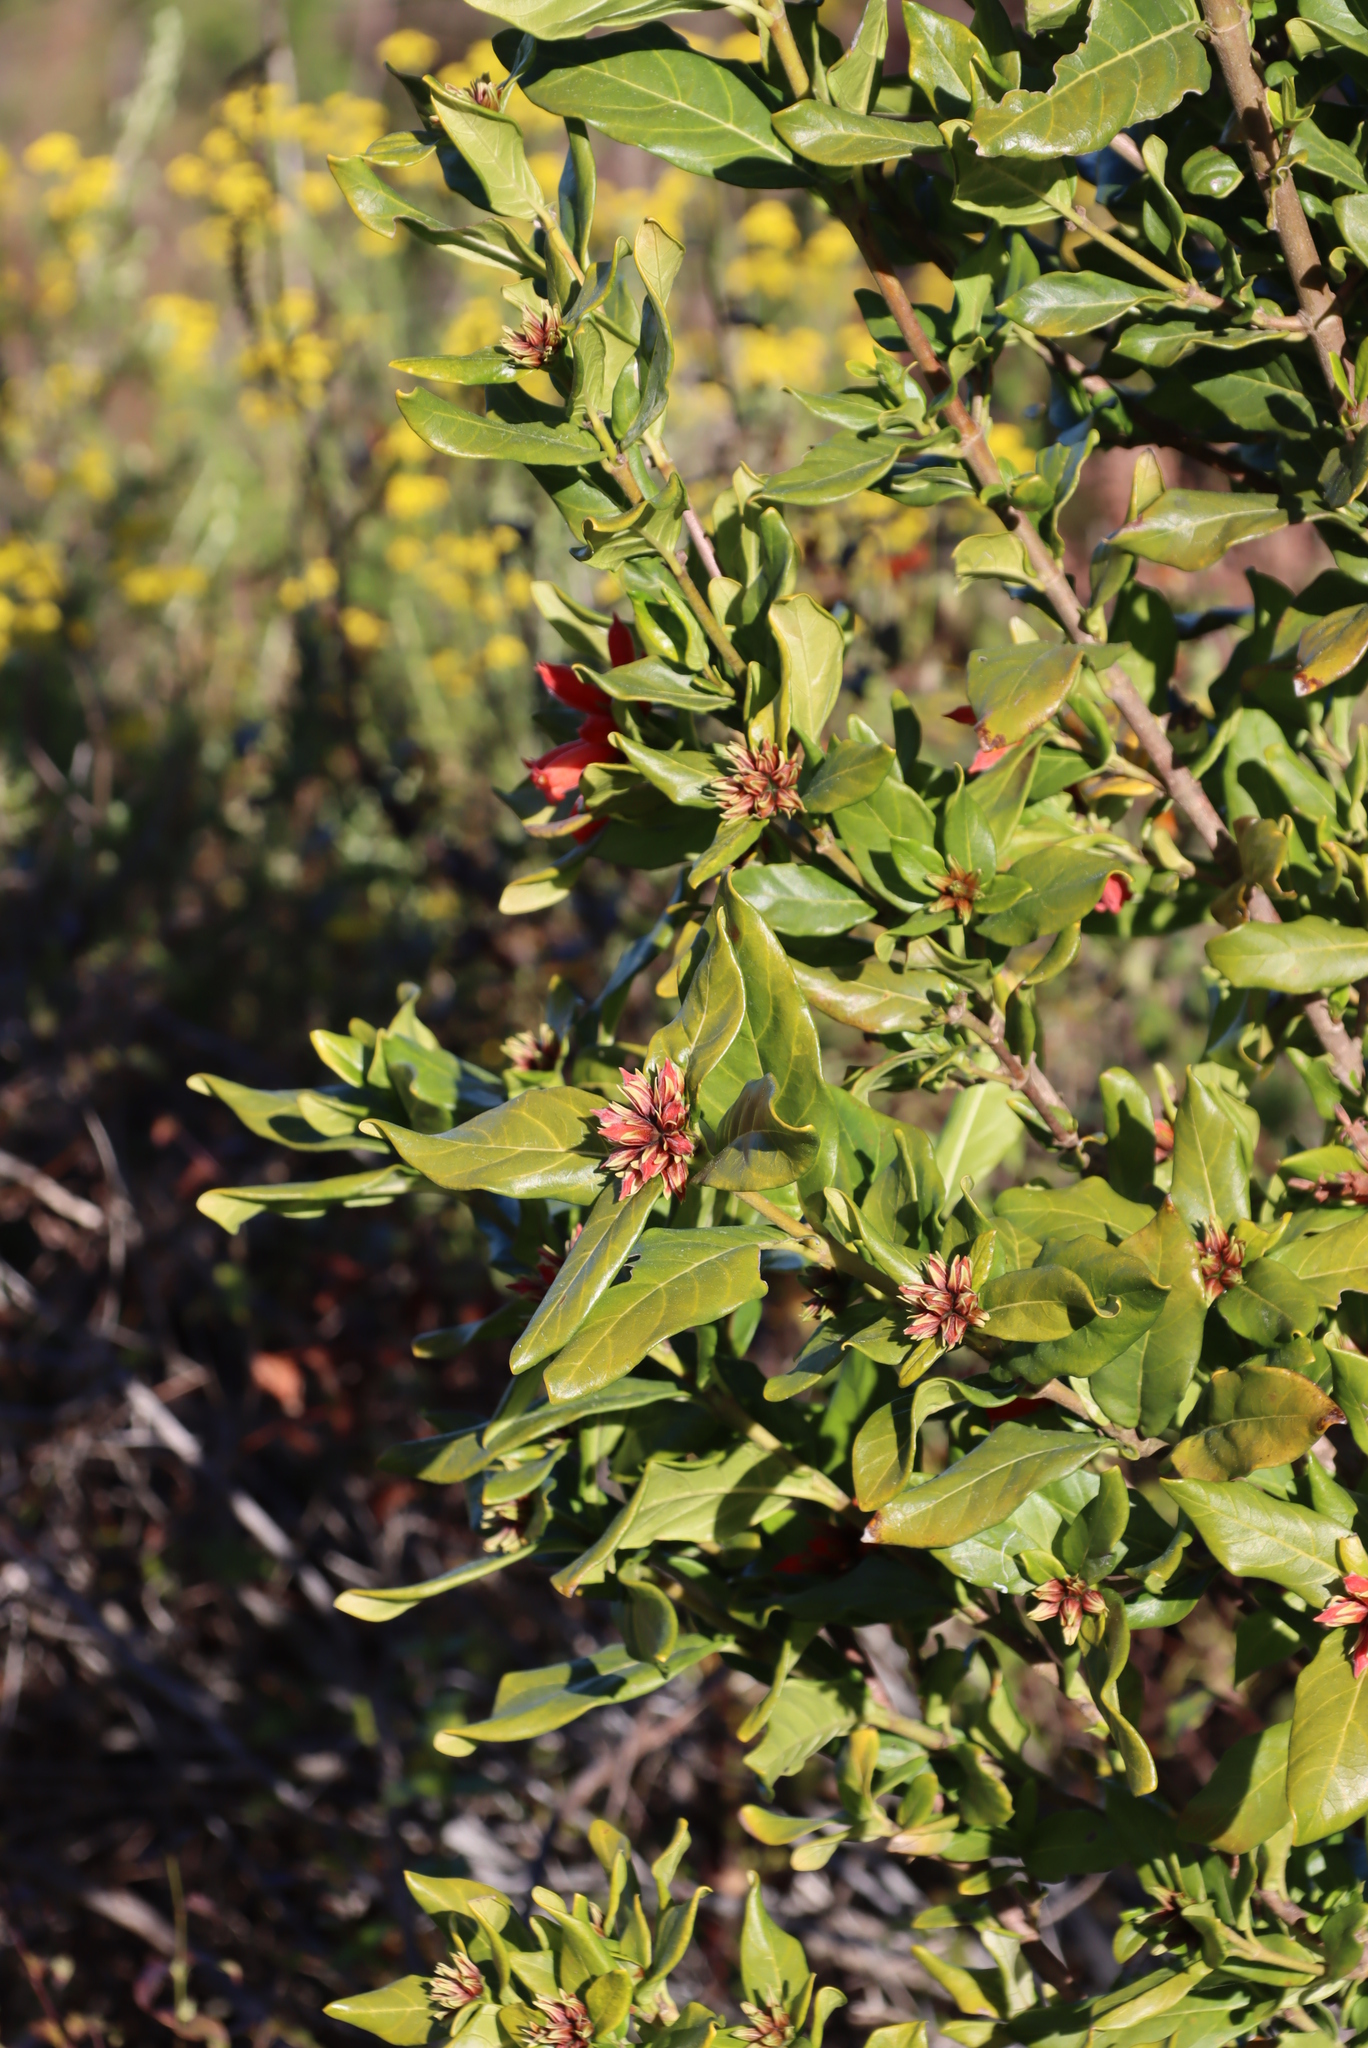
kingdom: Plantae
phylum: Tracheophyta
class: Magnoliopsida
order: Gentianales
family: Rubiaceae
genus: Burchellia
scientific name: Burchellia bubalina
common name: Wild pomegranate
